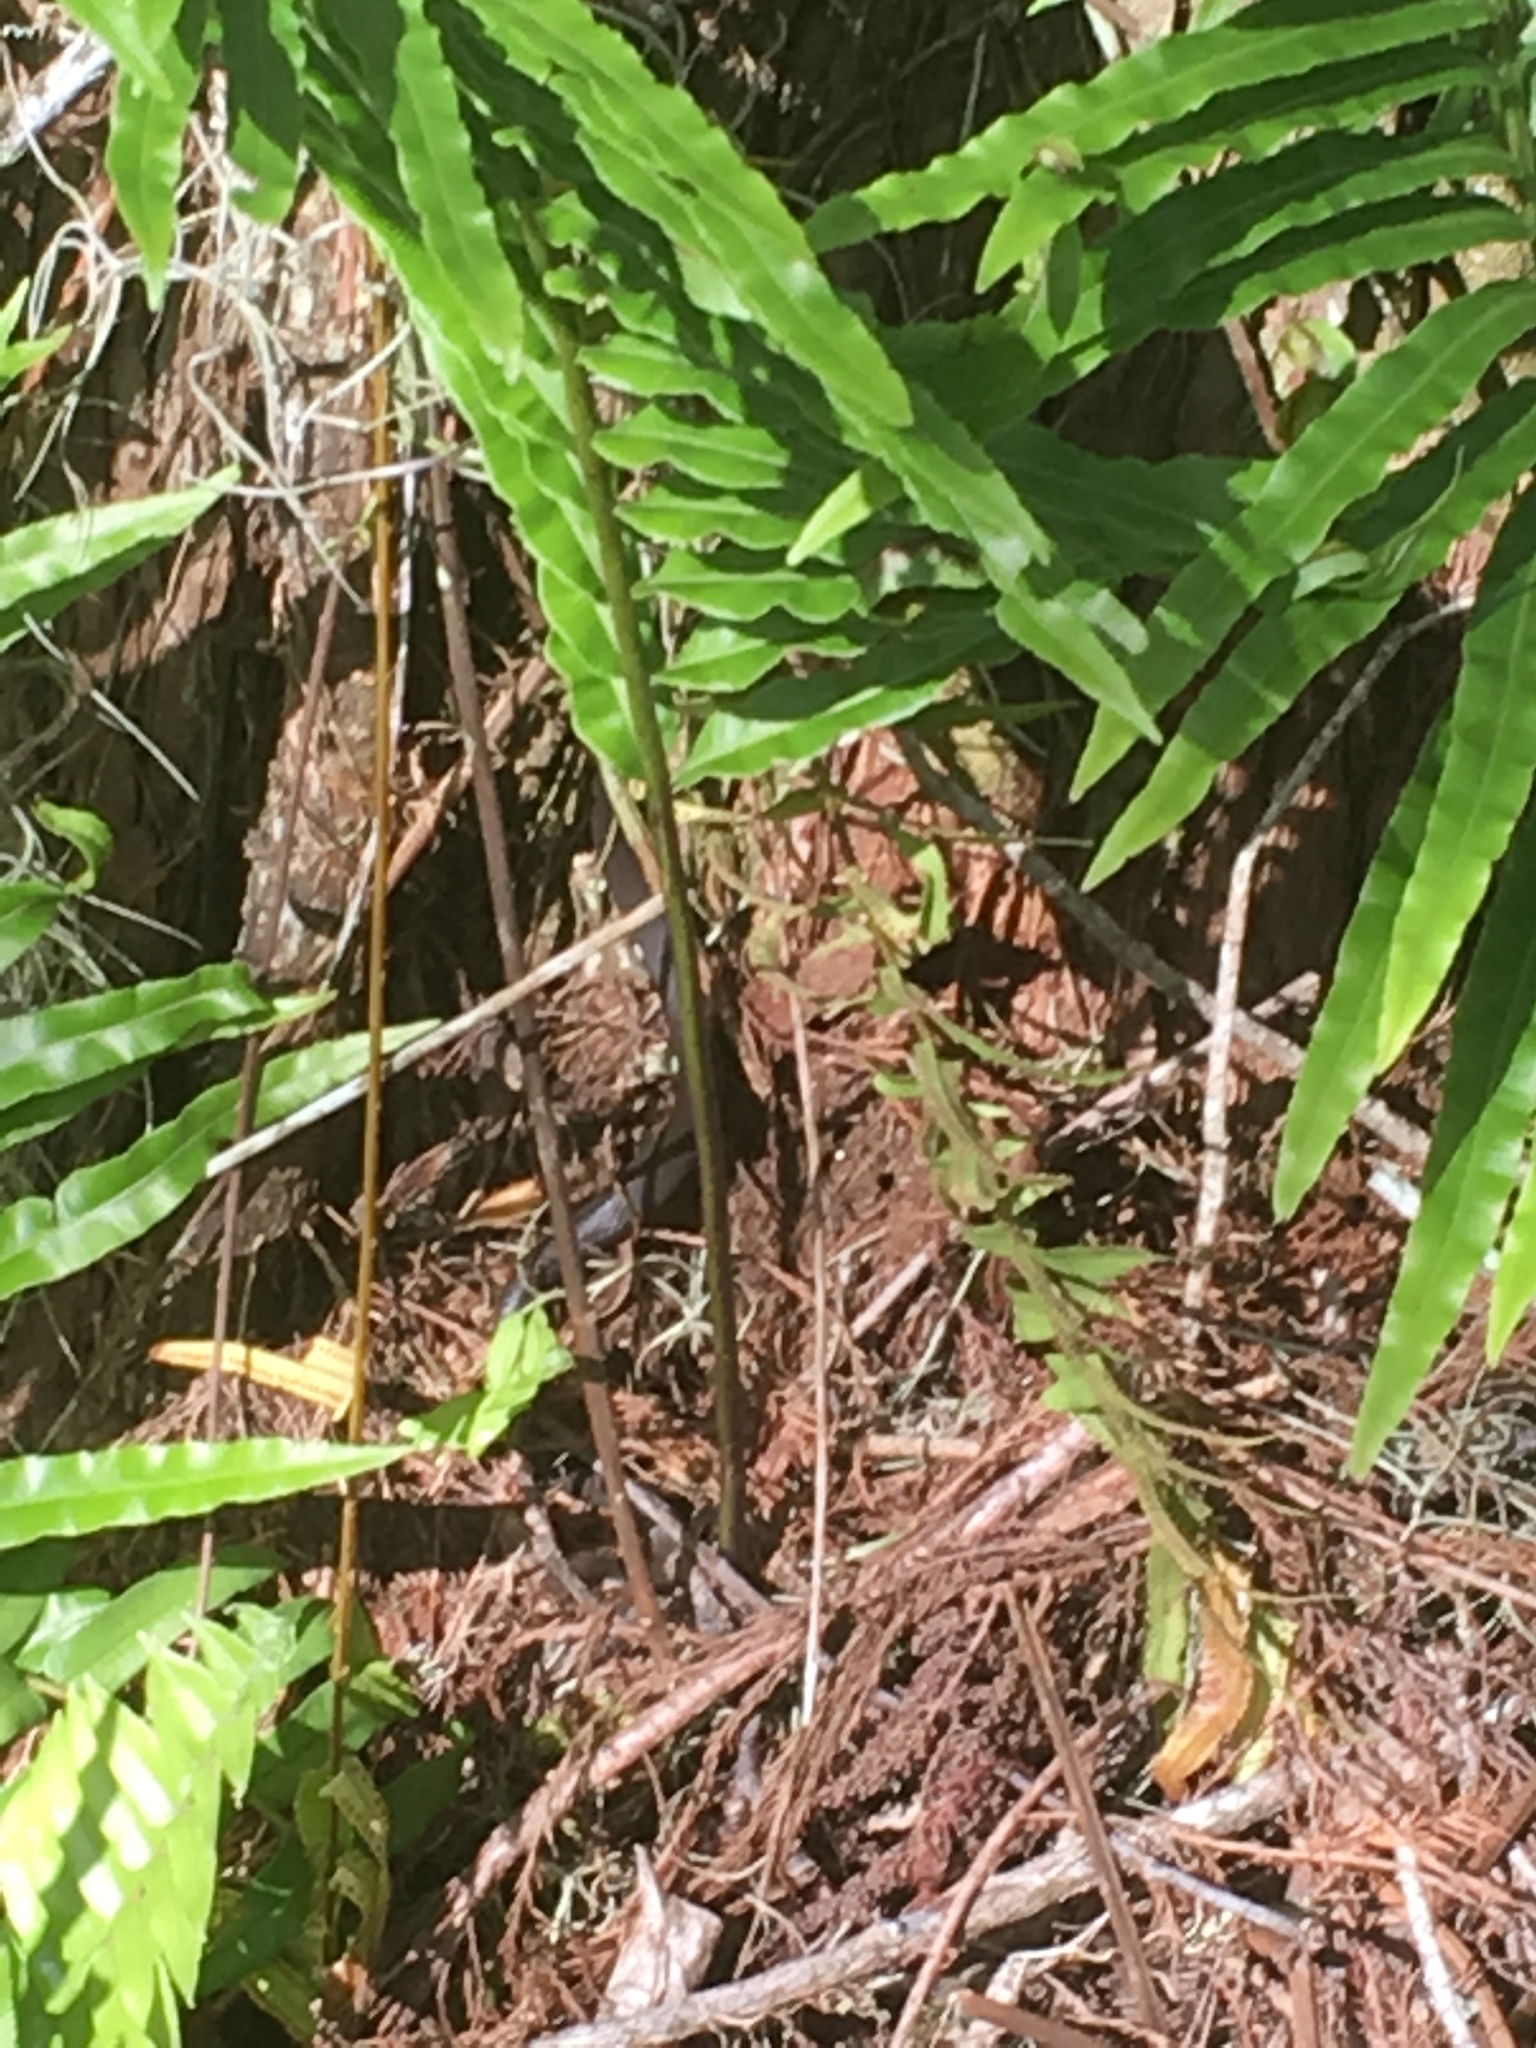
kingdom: Animalia
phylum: Chordata
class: Squamata
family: Colubridae
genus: Coluber
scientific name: Coluber constrictor
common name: Eastern racer
